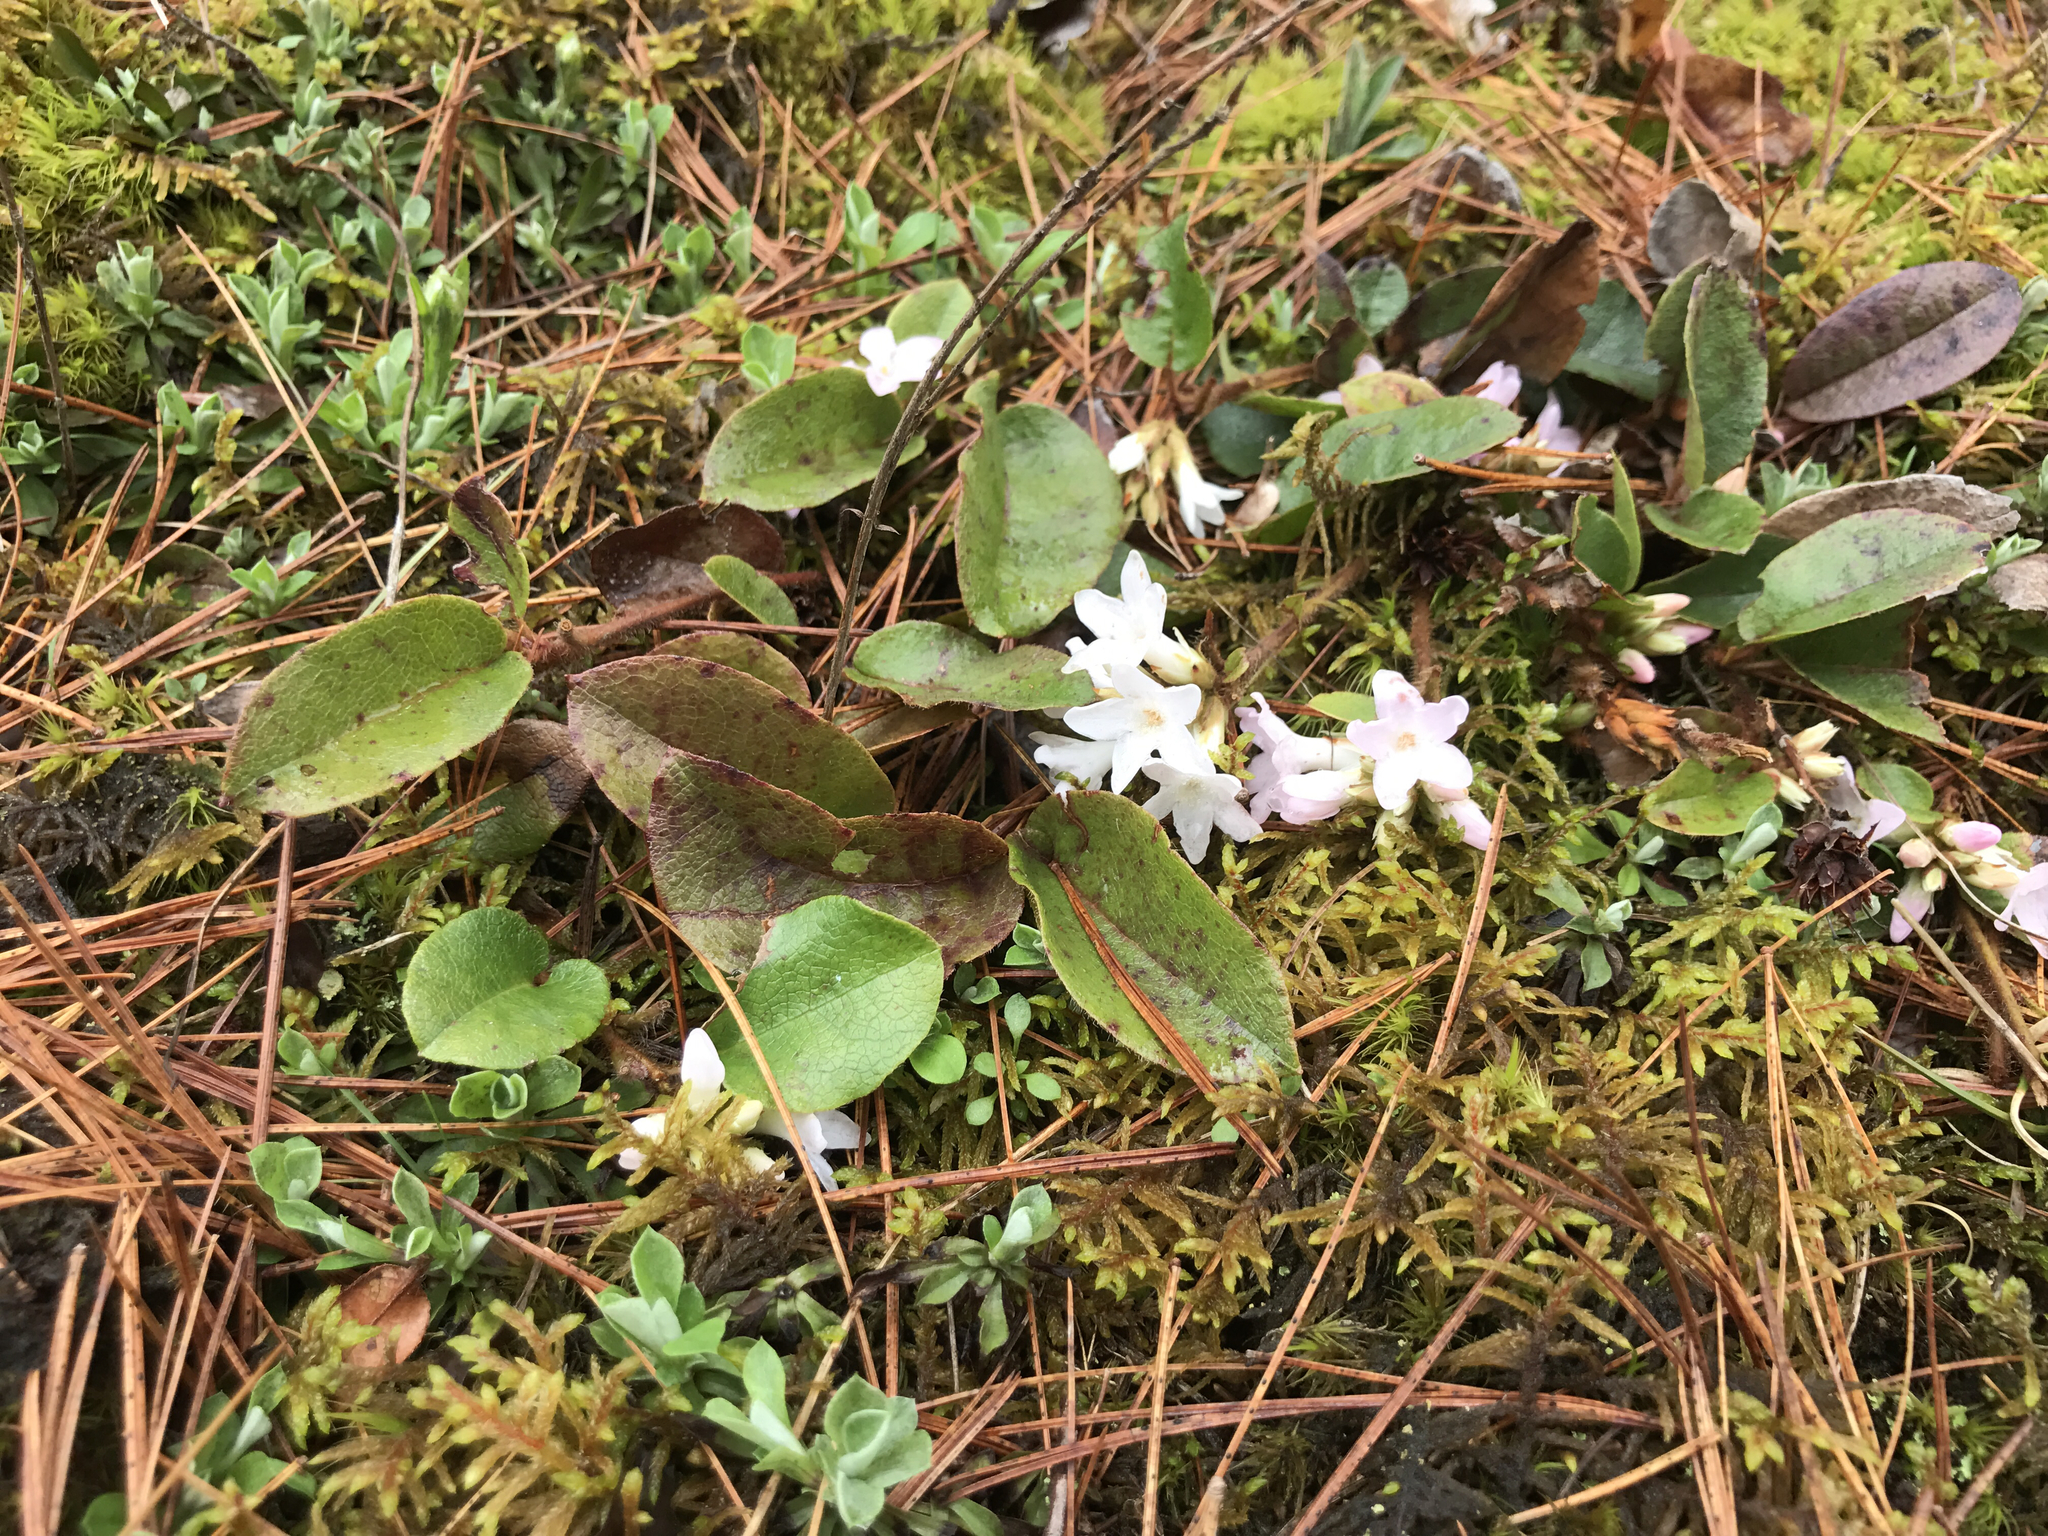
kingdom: Plantae
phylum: Tracheophyta
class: Magnoliopsida
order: Ericales
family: Ericaceae
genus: Epigaea
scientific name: Epigaea repens
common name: Gravelroot
